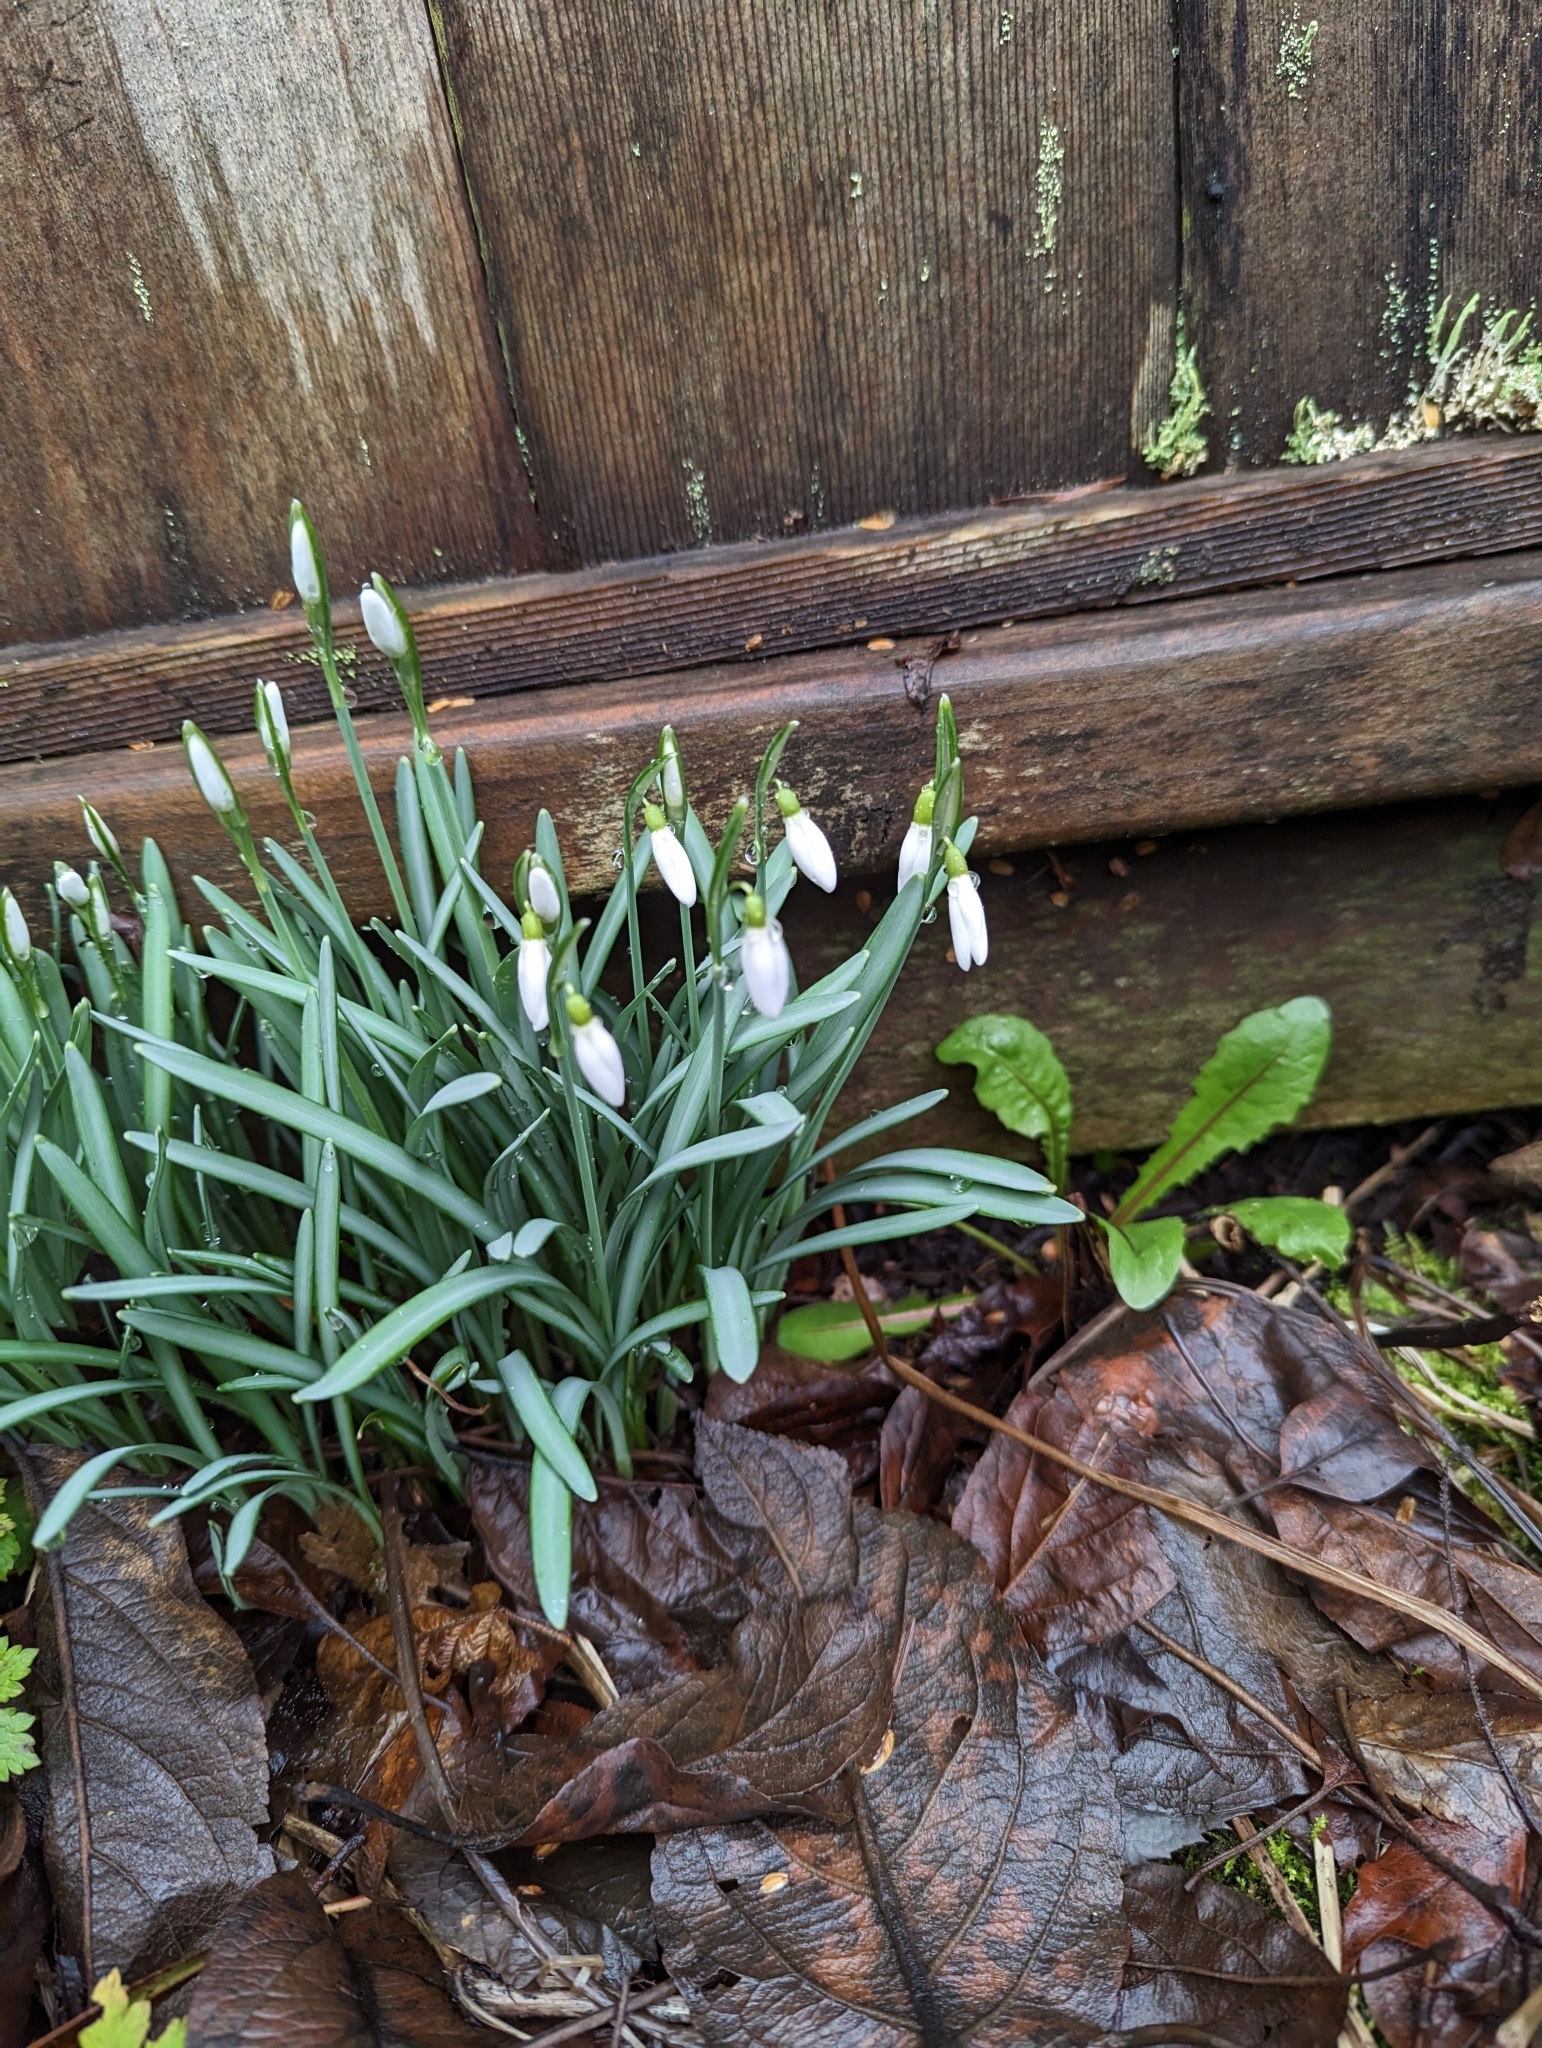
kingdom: Plantae
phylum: Tracheophyta
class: Liliopsida
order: Asparagales
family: Amaryllidaceae
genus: Galanthus
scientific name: Galanthus nivalis
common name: Snowdrop
